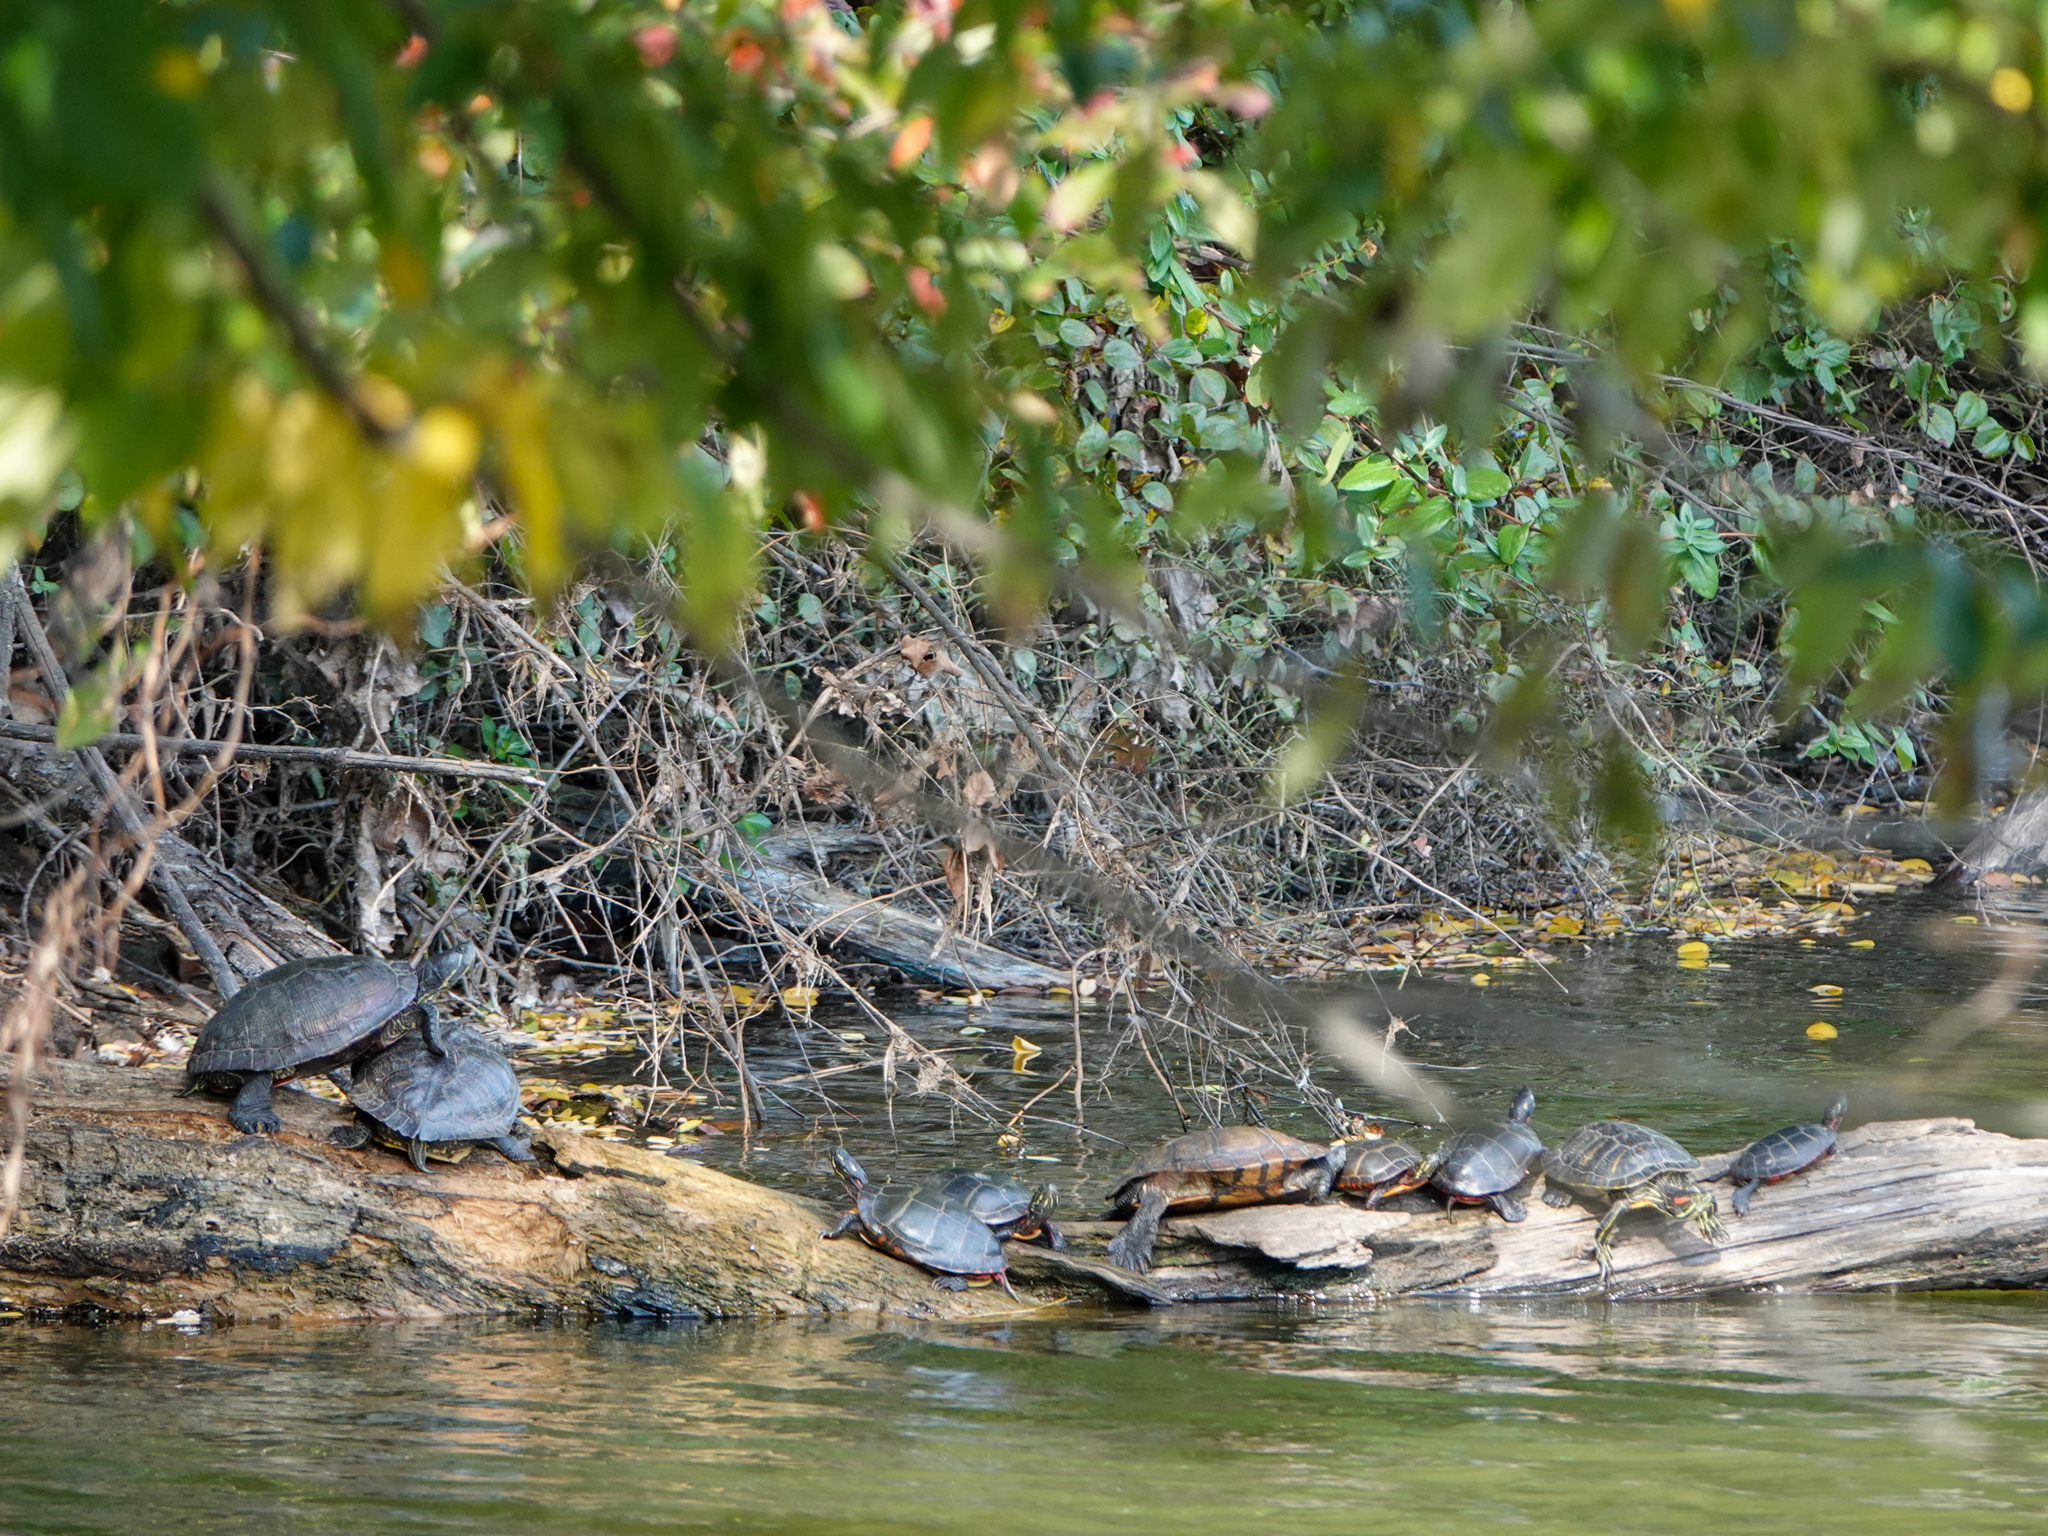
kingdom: Animalia
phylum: Chordata
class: Testudines
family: Emydidae
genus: Trachemys
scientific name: Trachemys scripta
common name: Slider
